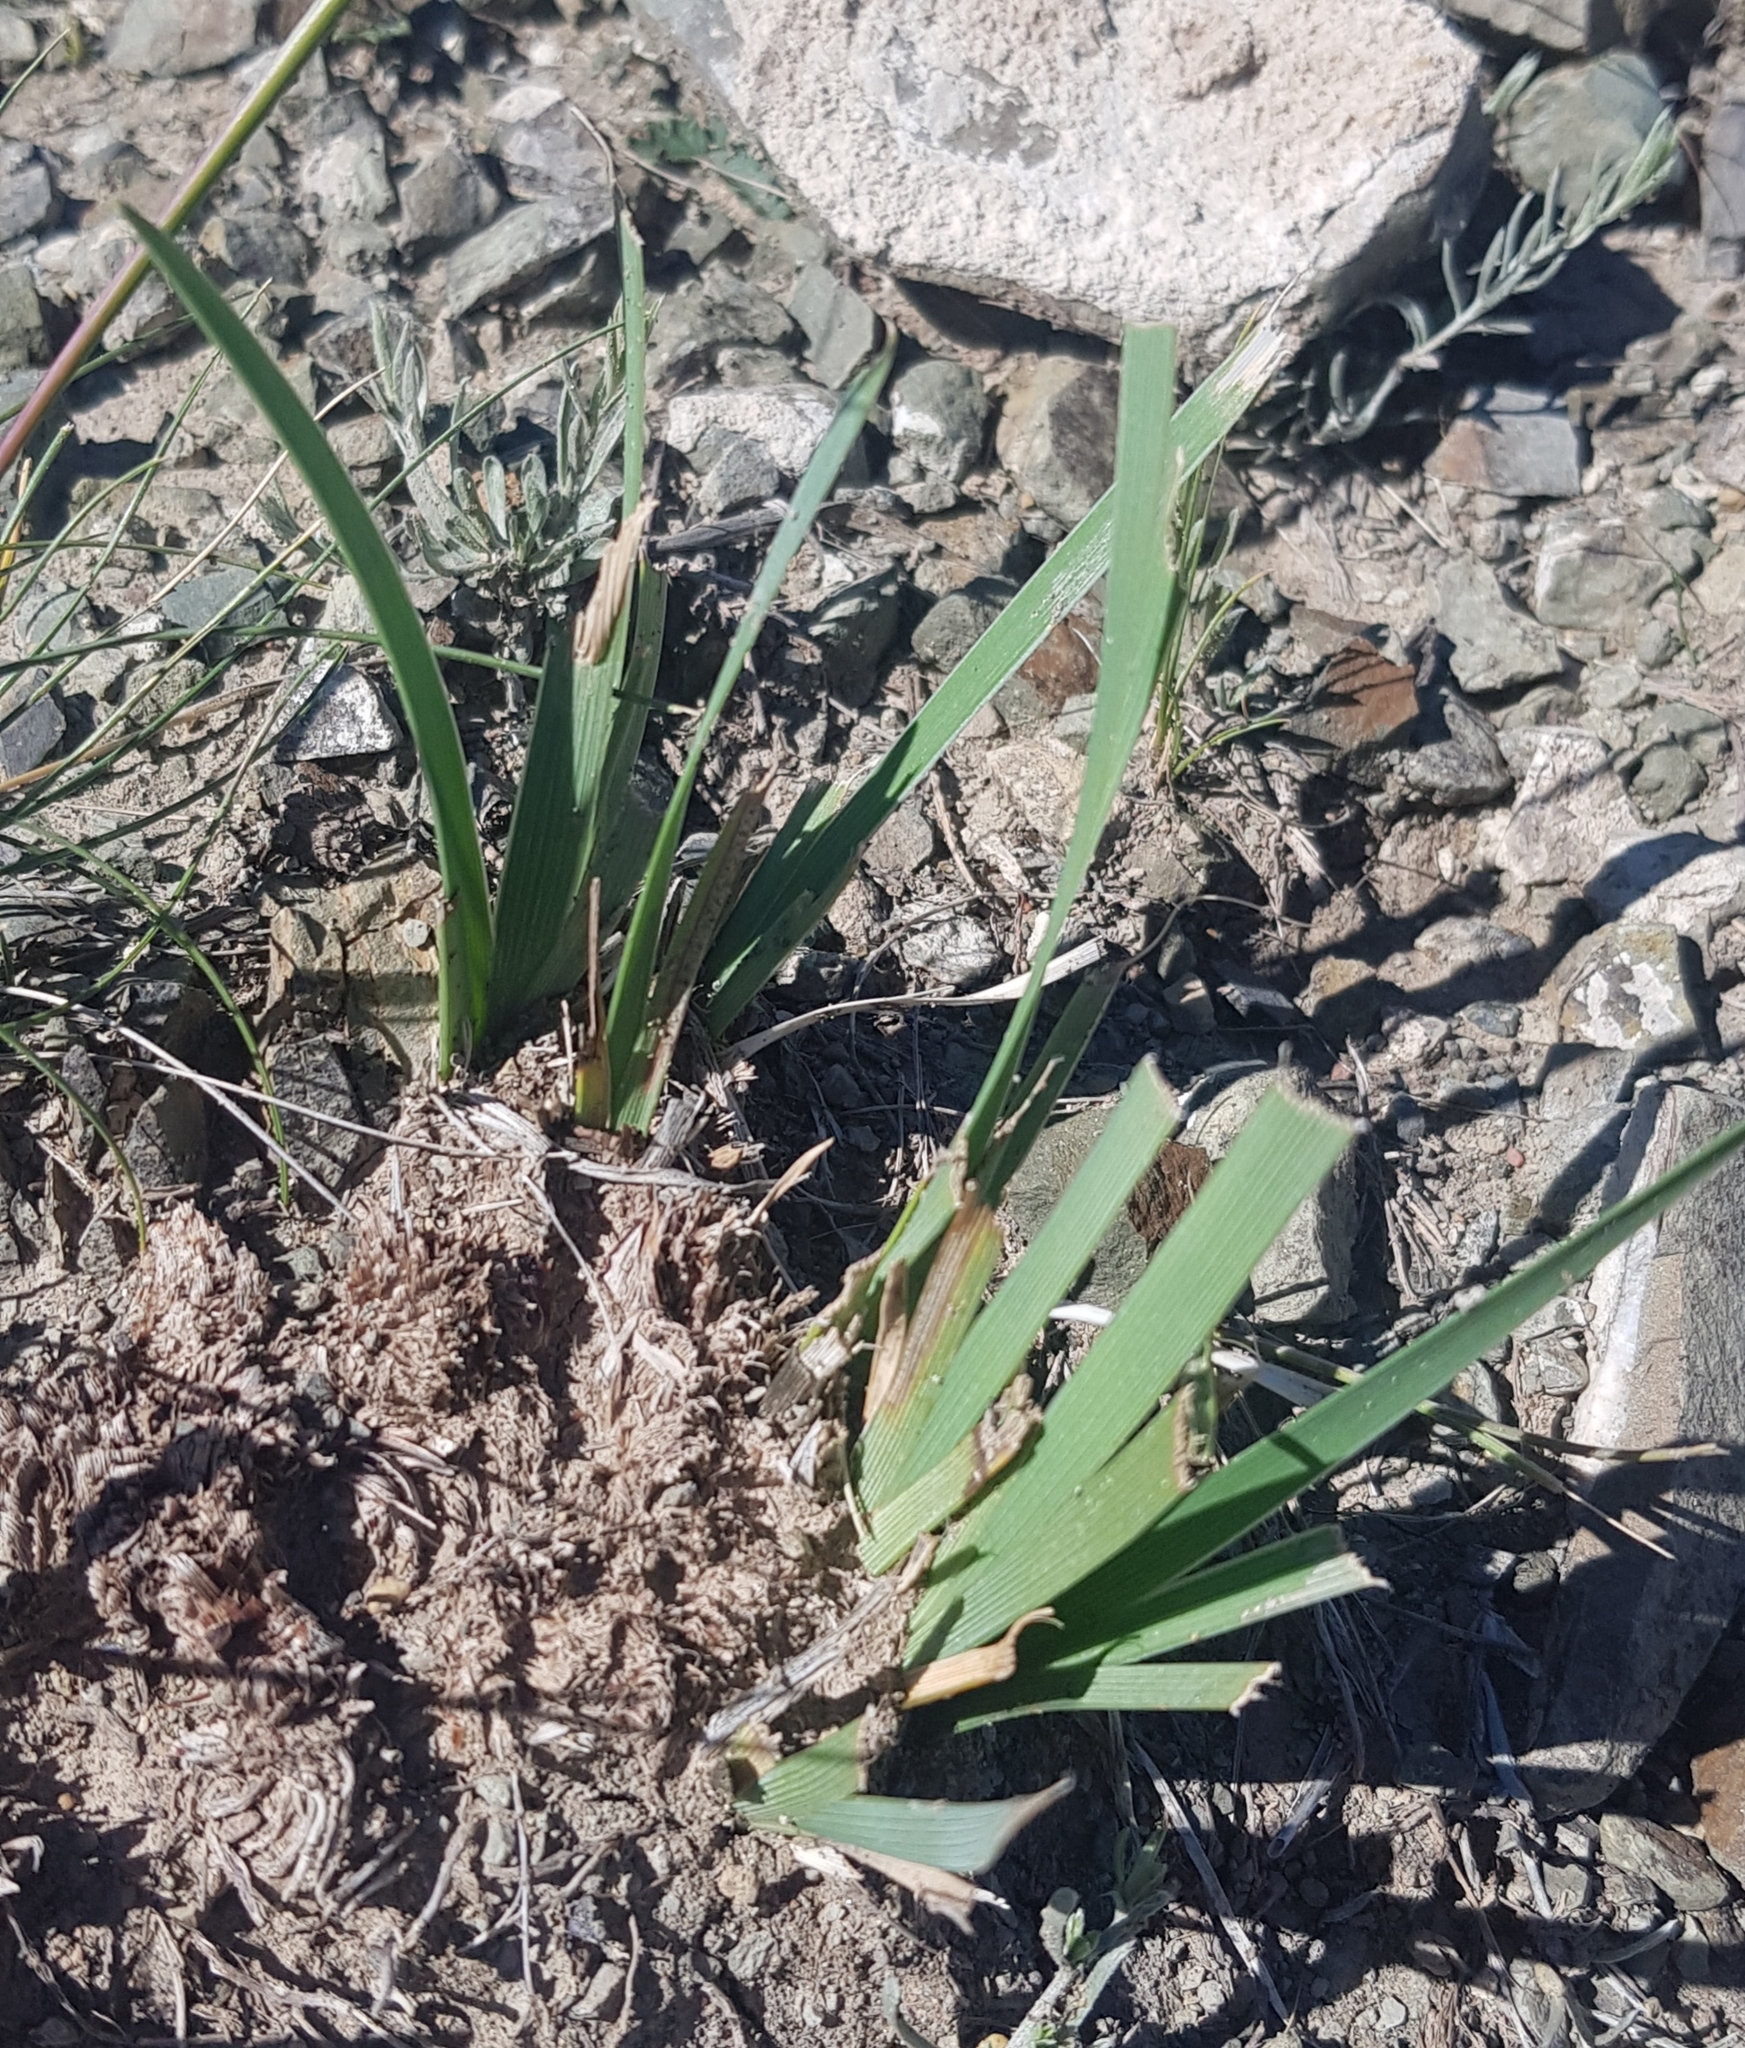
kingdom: Plantae
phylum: Tracheophyta
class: Liliopsida
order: Asparagales
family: Iridaceae
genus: Iris
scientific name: Iris lactea
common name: White-flower chinese iris
